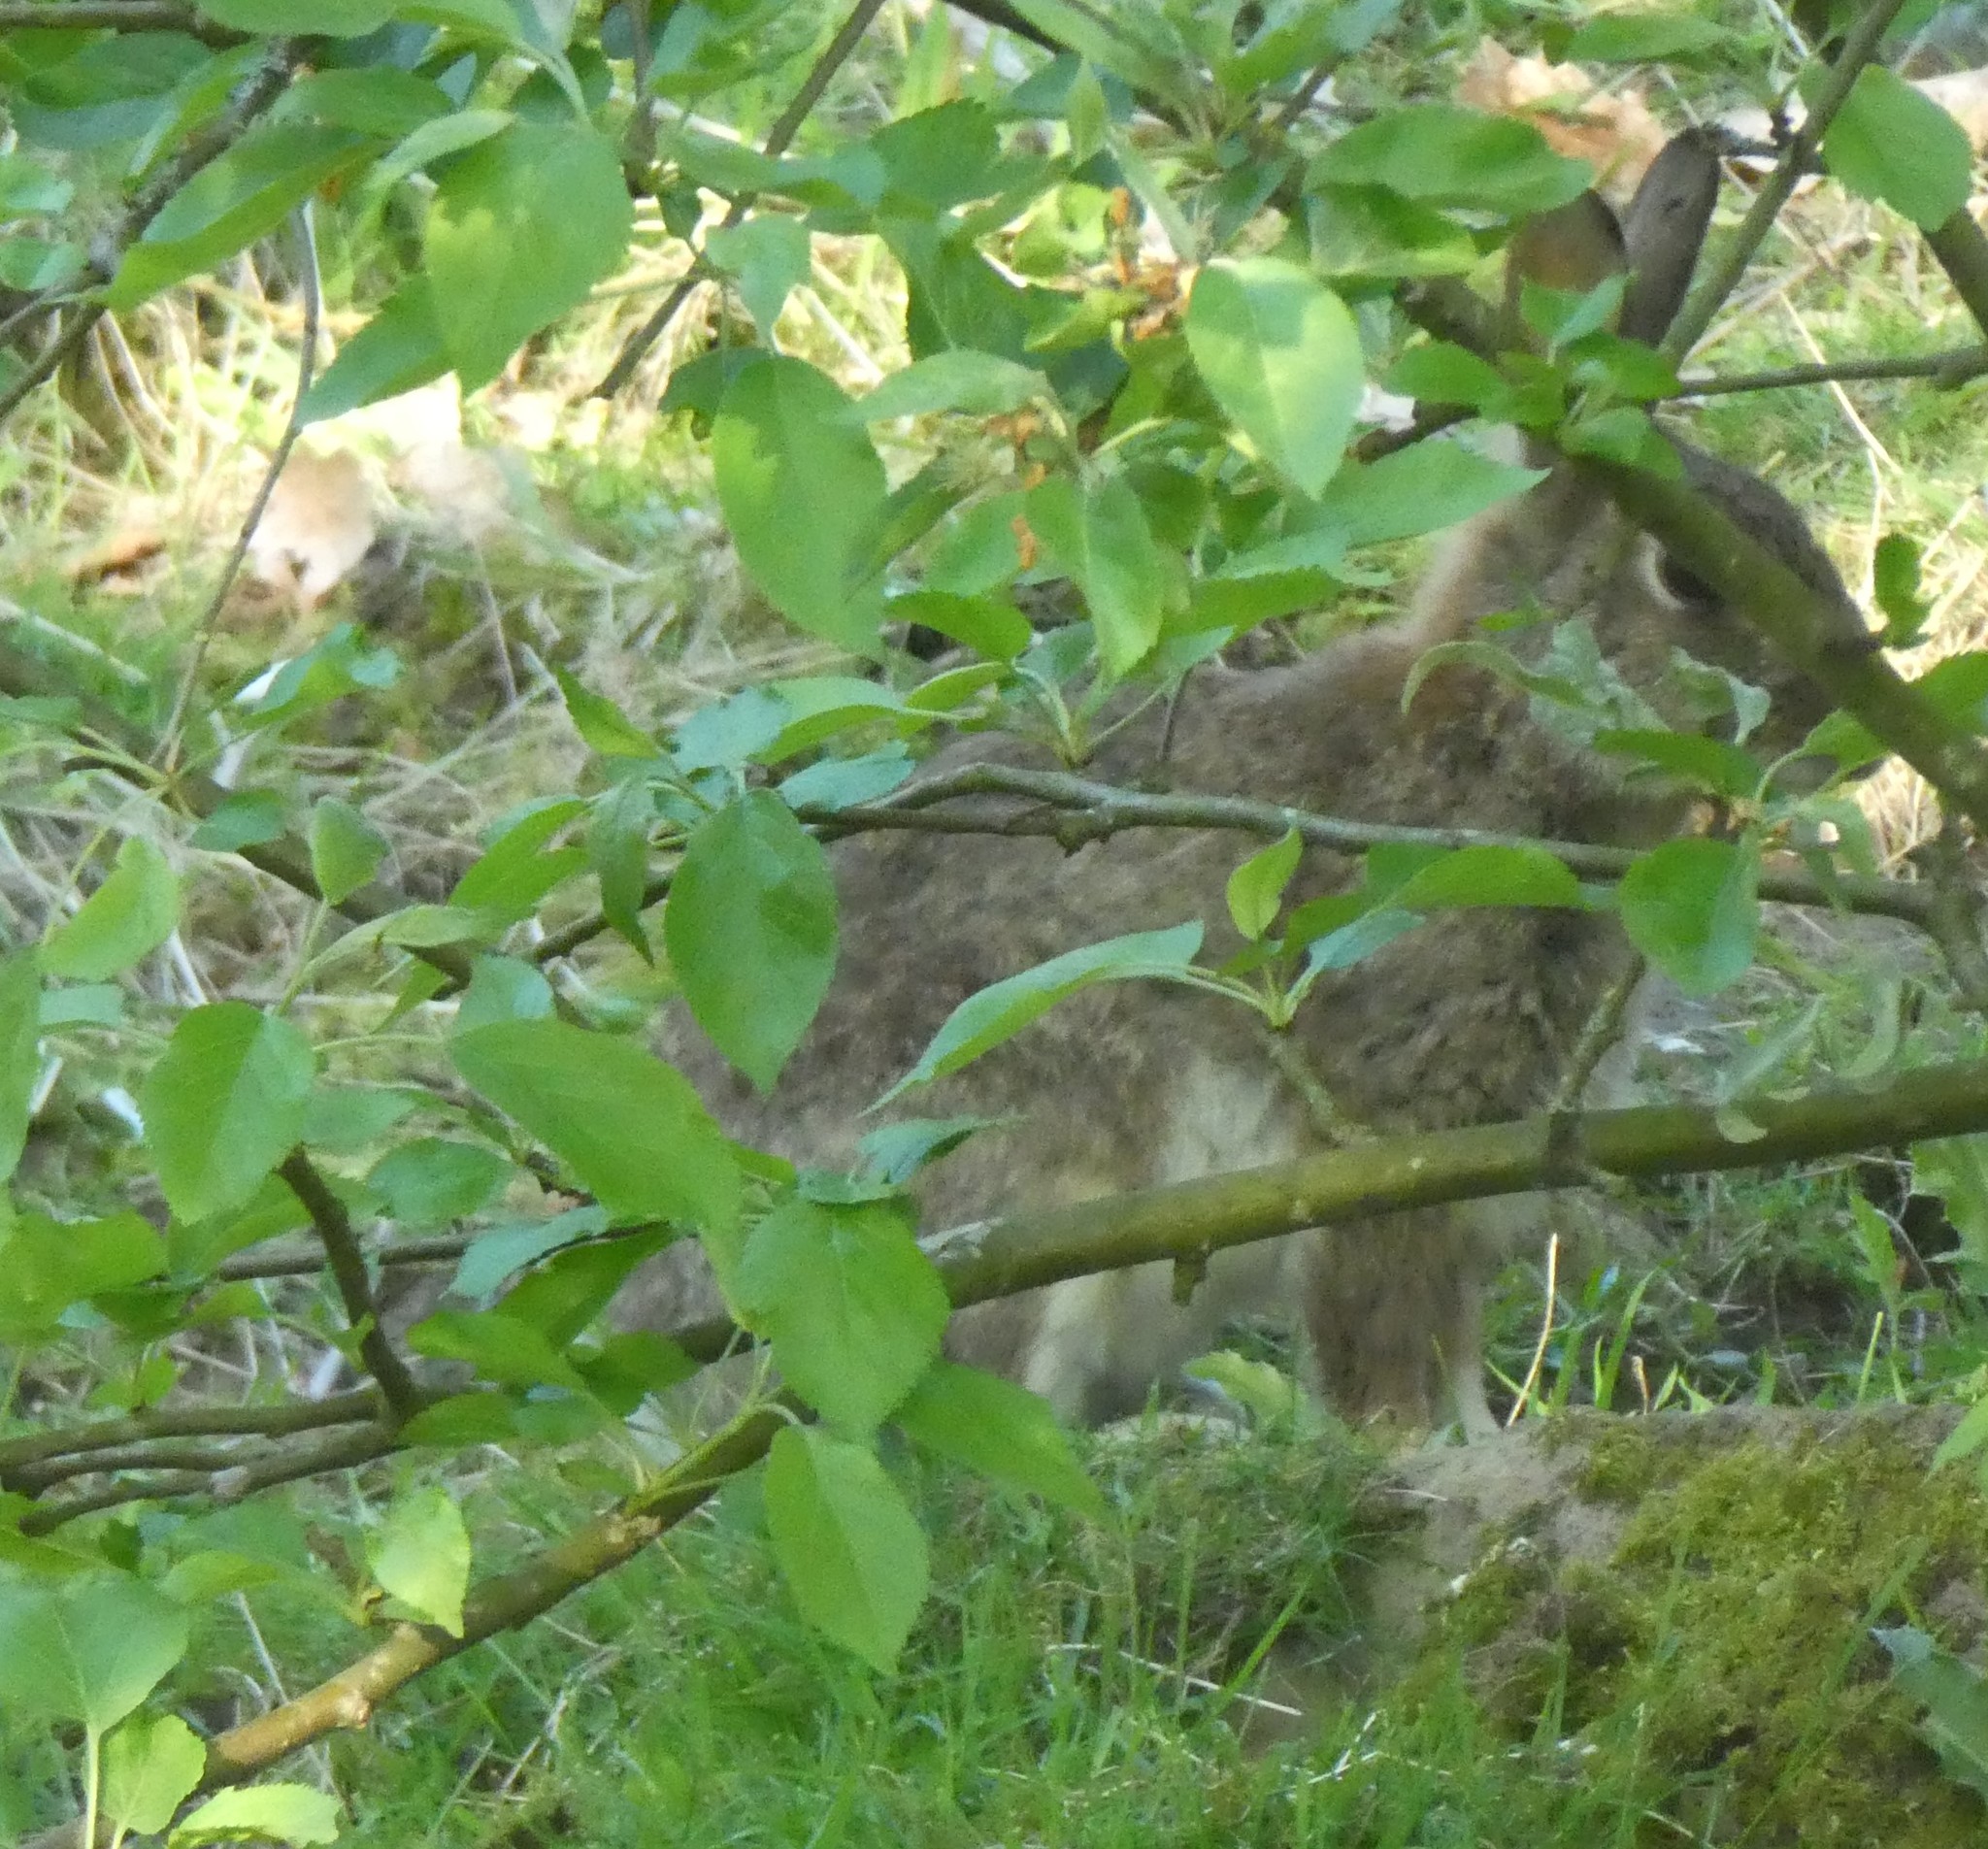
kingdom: Animalia
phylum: Chordata
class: Mammalia
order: Lagomorpha
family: Leporidae
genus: Oryctolagus
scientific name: Oryctolagus cuniculus
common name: European rabbit
